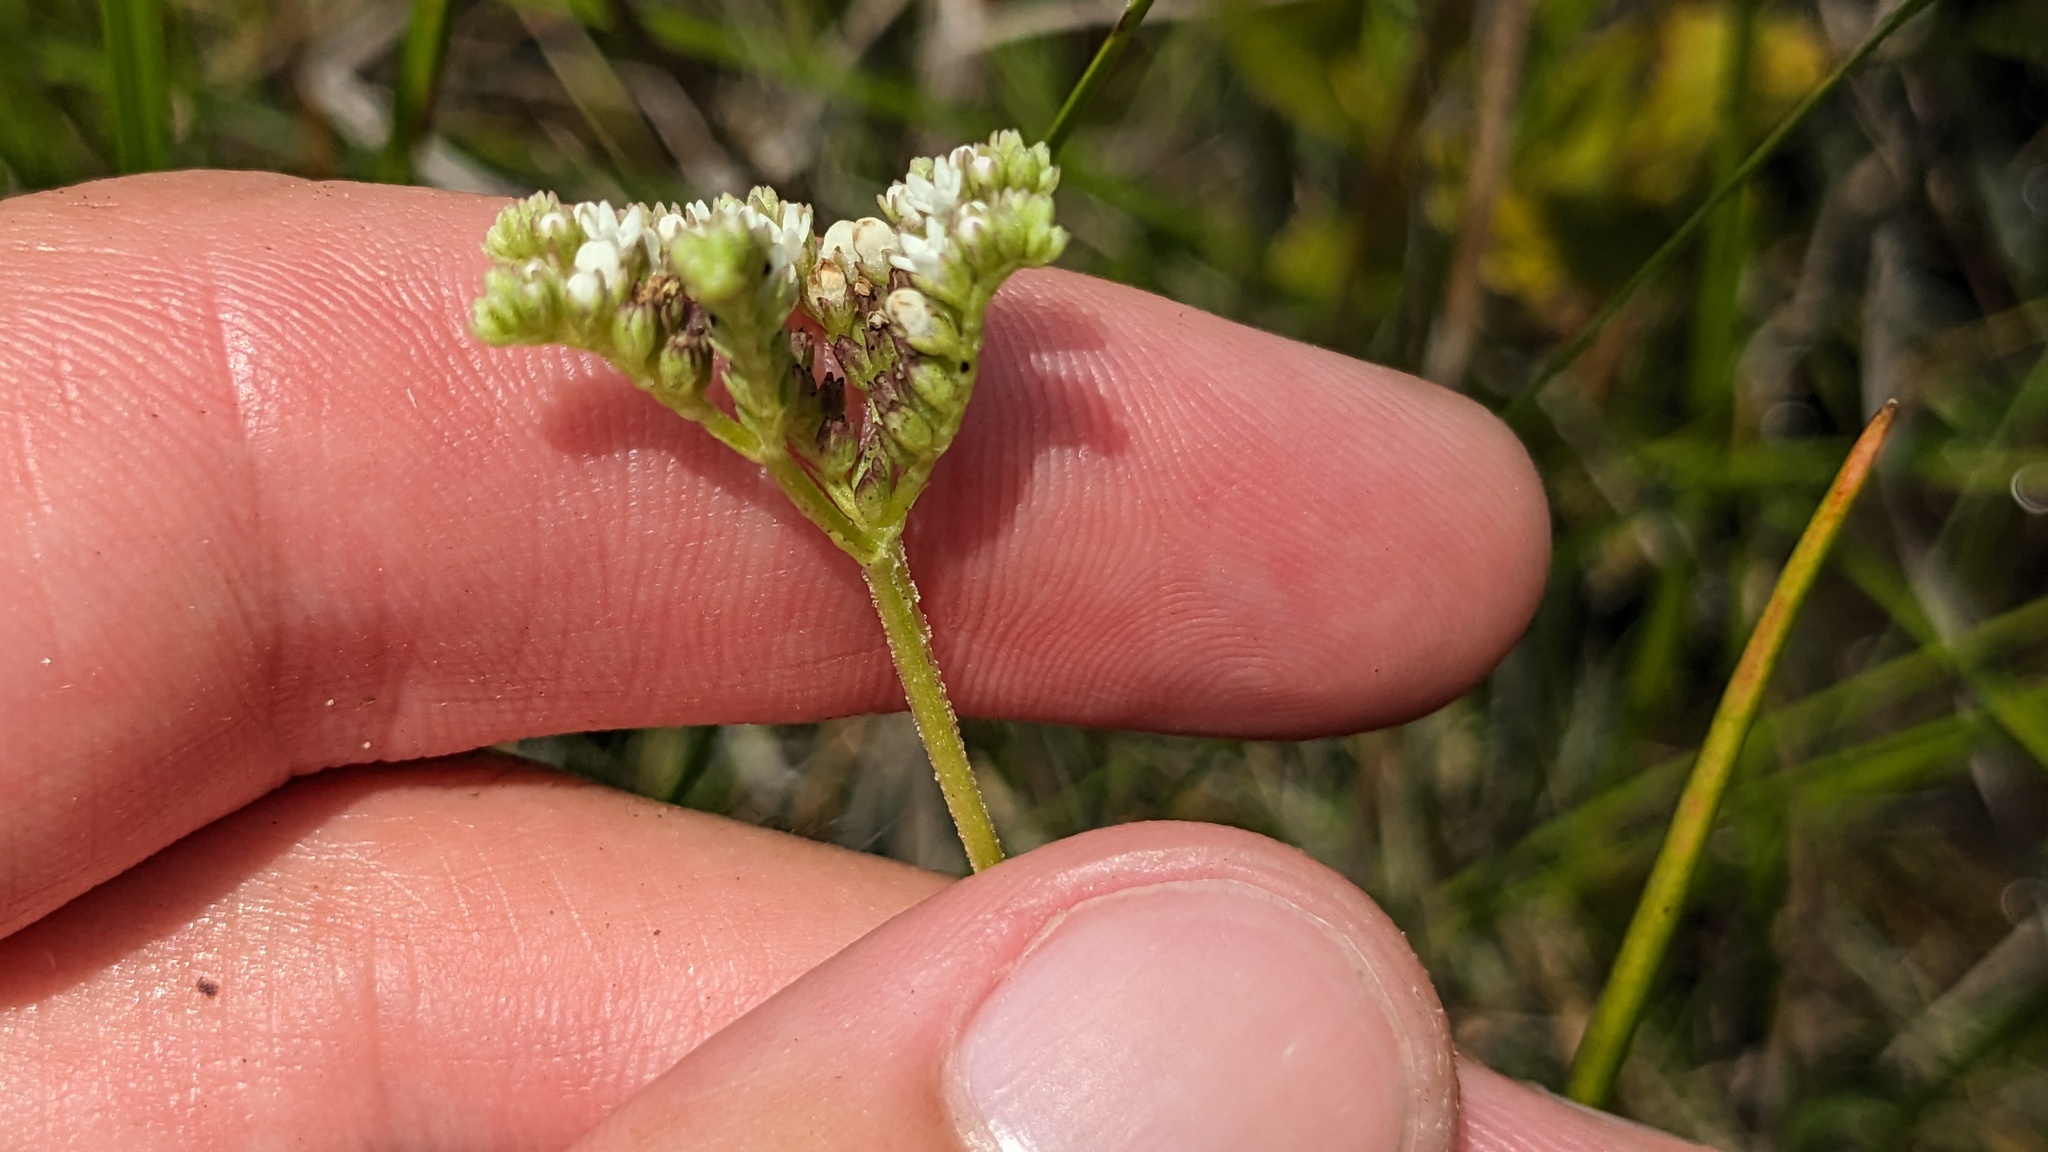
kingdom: Plantae
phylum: Tracheophyta
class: Magnoliopsida
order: Gentianales
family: Loganiaceae
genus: Mitreola
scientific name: Mitreola sessilifolia
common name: Swamp hornpod
